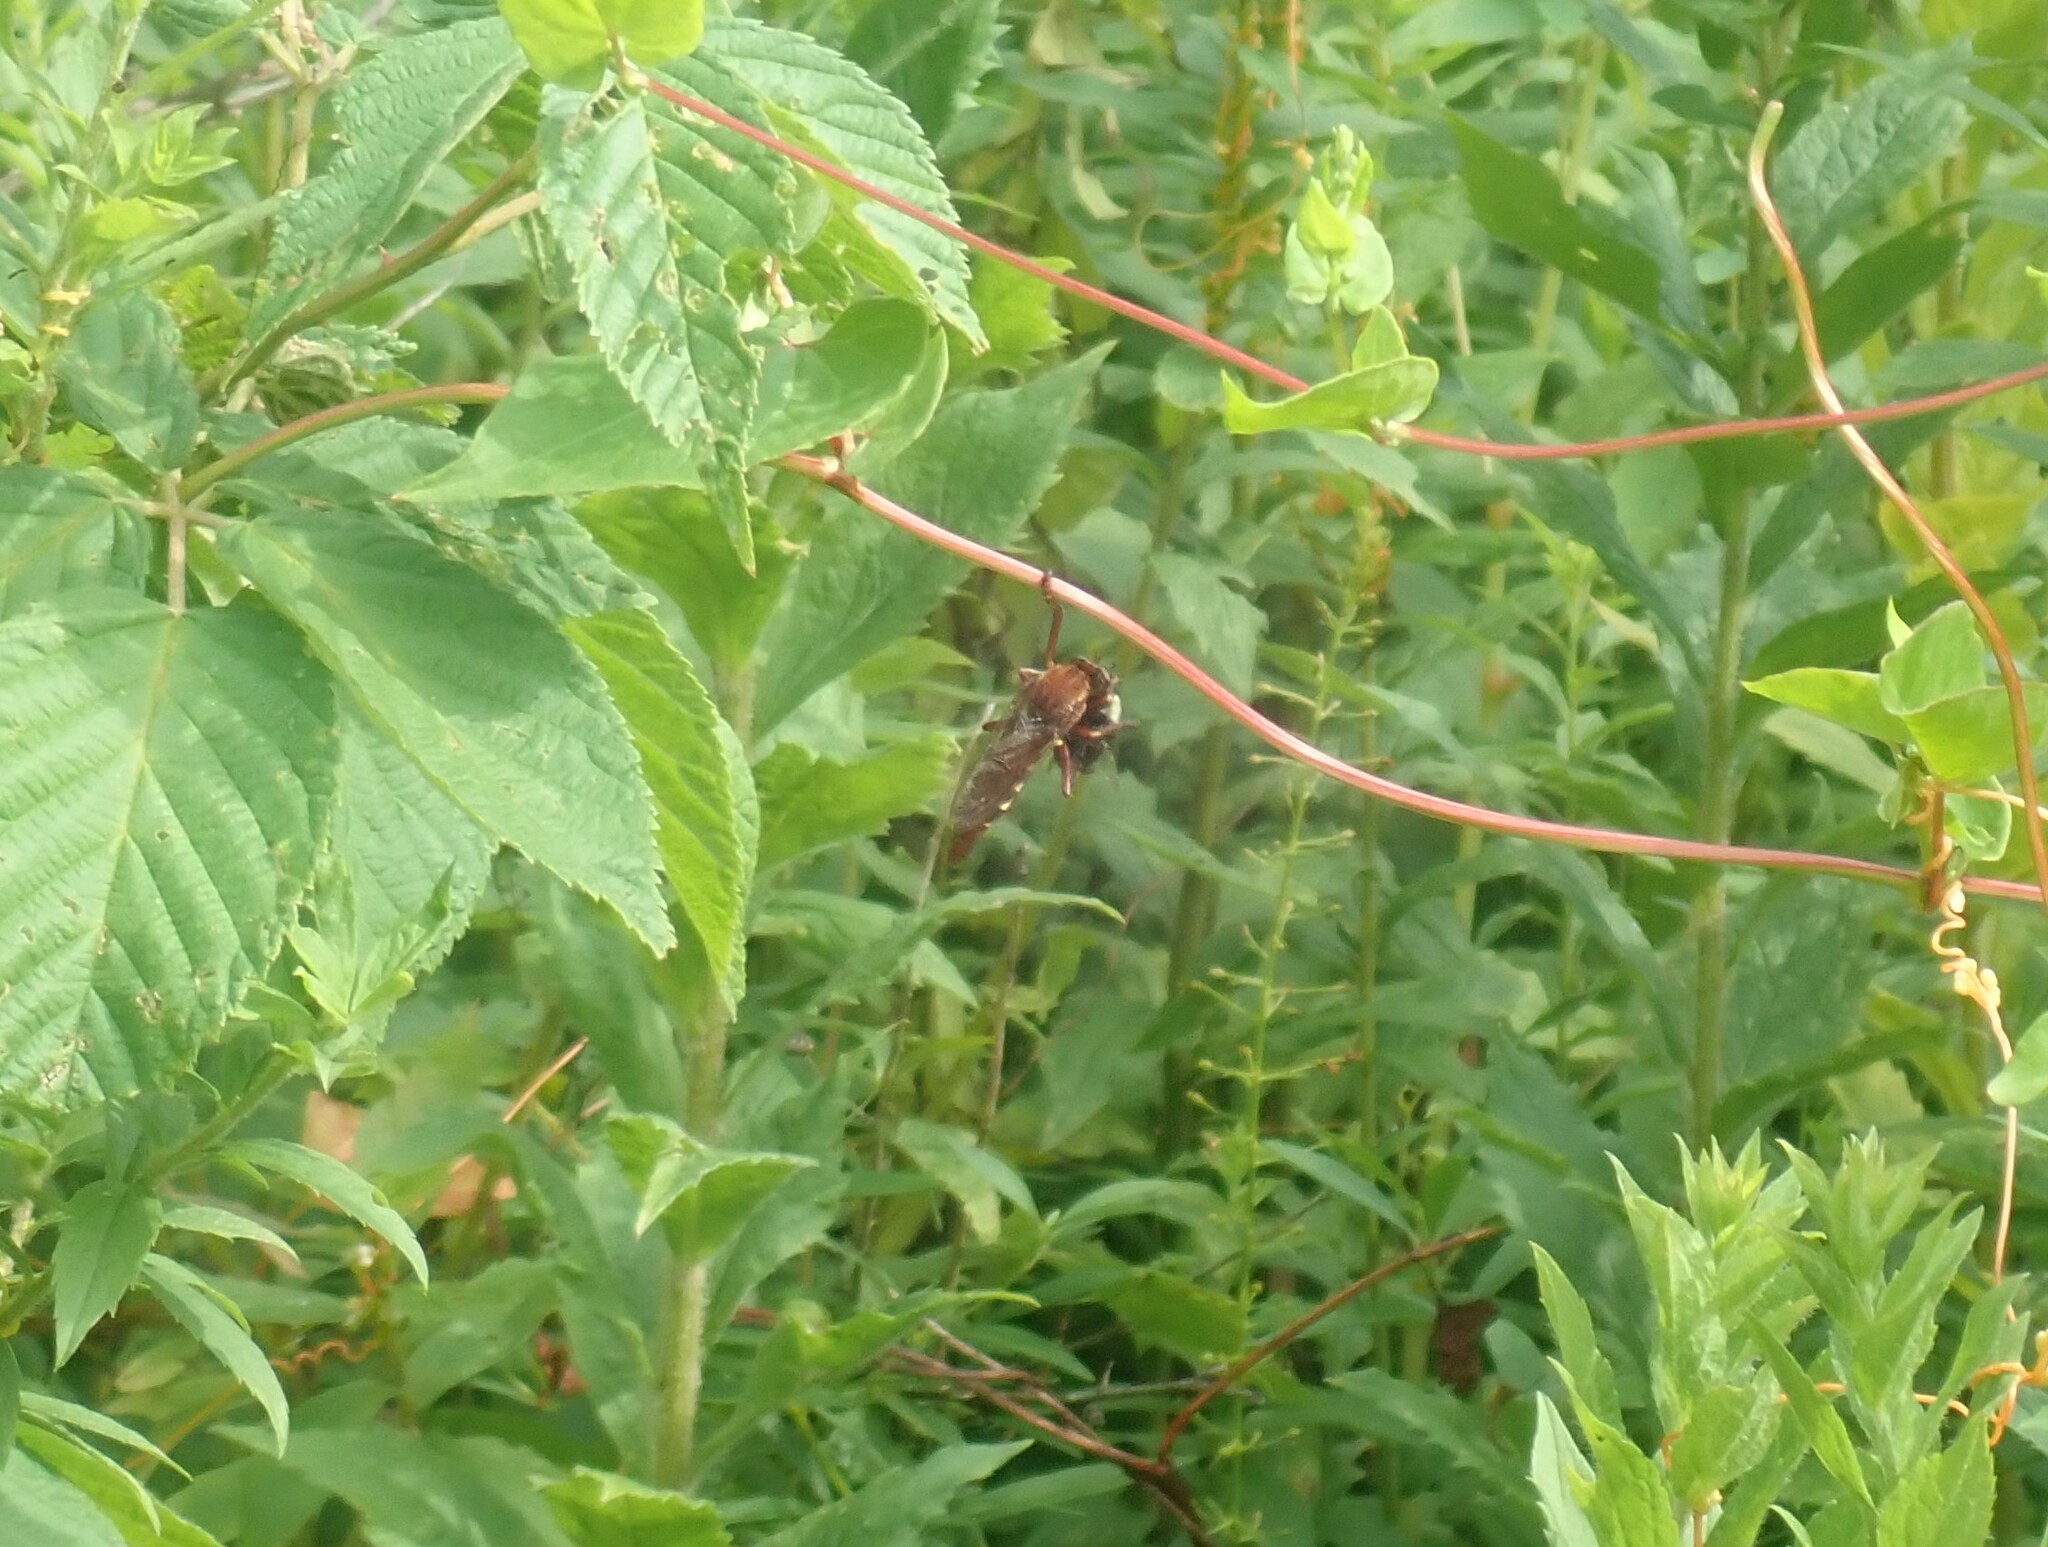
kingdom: Animalia
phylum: Arthropoda
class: Insecta
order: Diptera
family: Asilidae
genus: Diogmites
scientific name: Diogmites basalis
